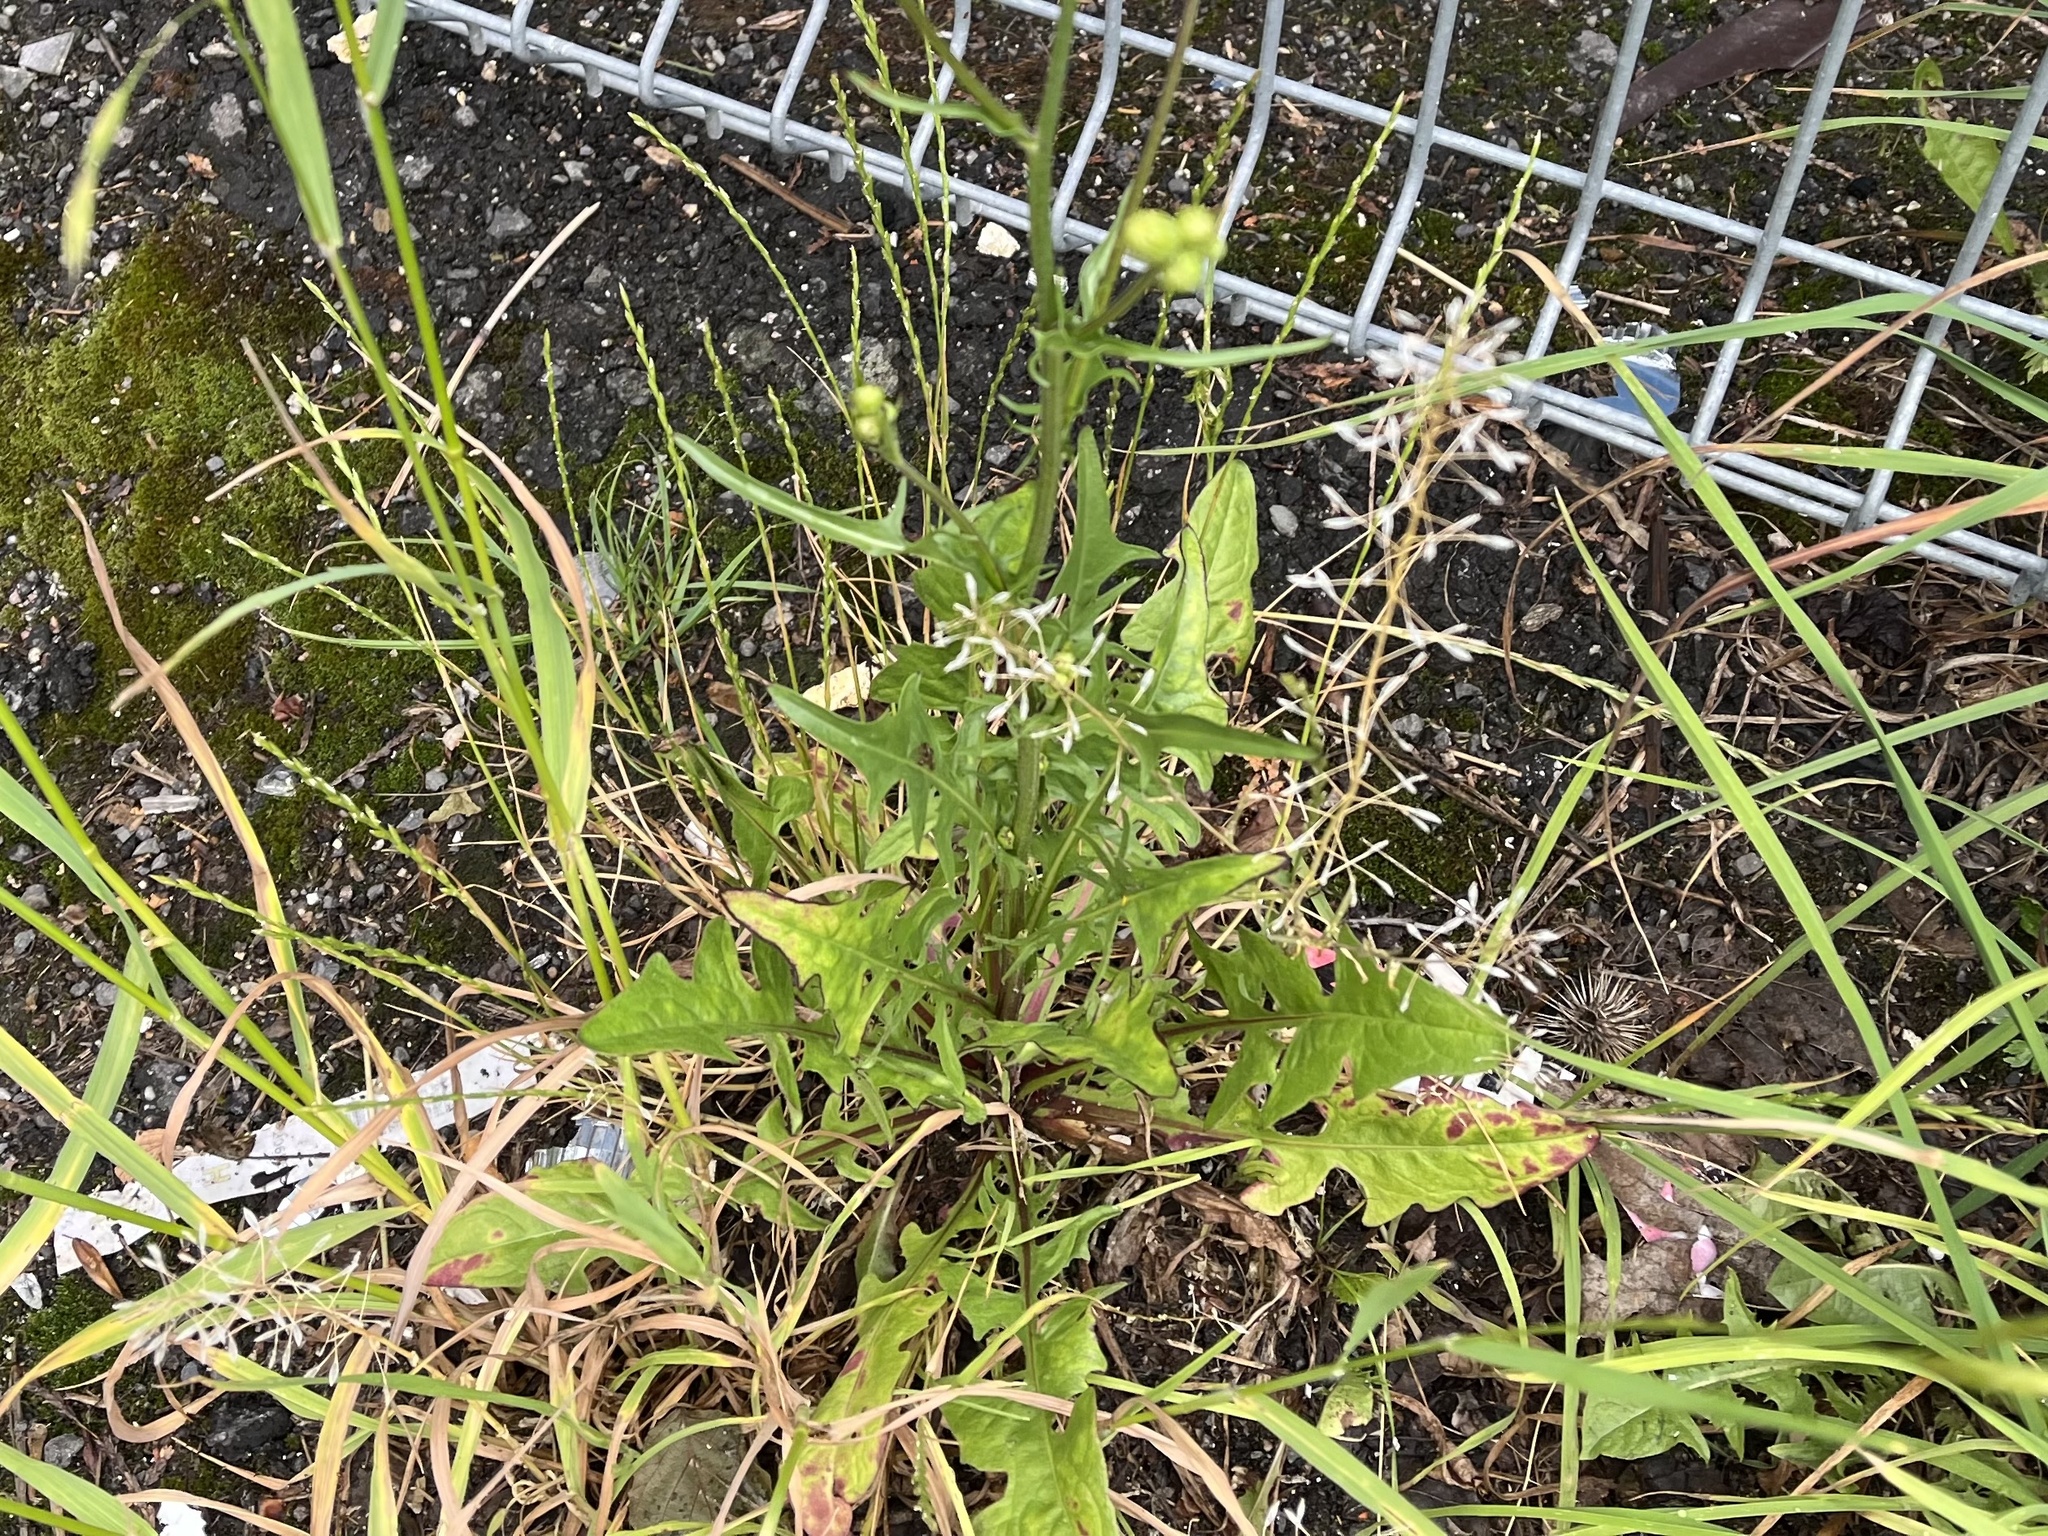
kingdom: Plantae
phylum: Tracheophyta
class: Magnoliopsida
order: Asterales
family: Asteraceae
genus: Crepis
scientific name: Crepis biennis
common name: Rough hawk's-beard
